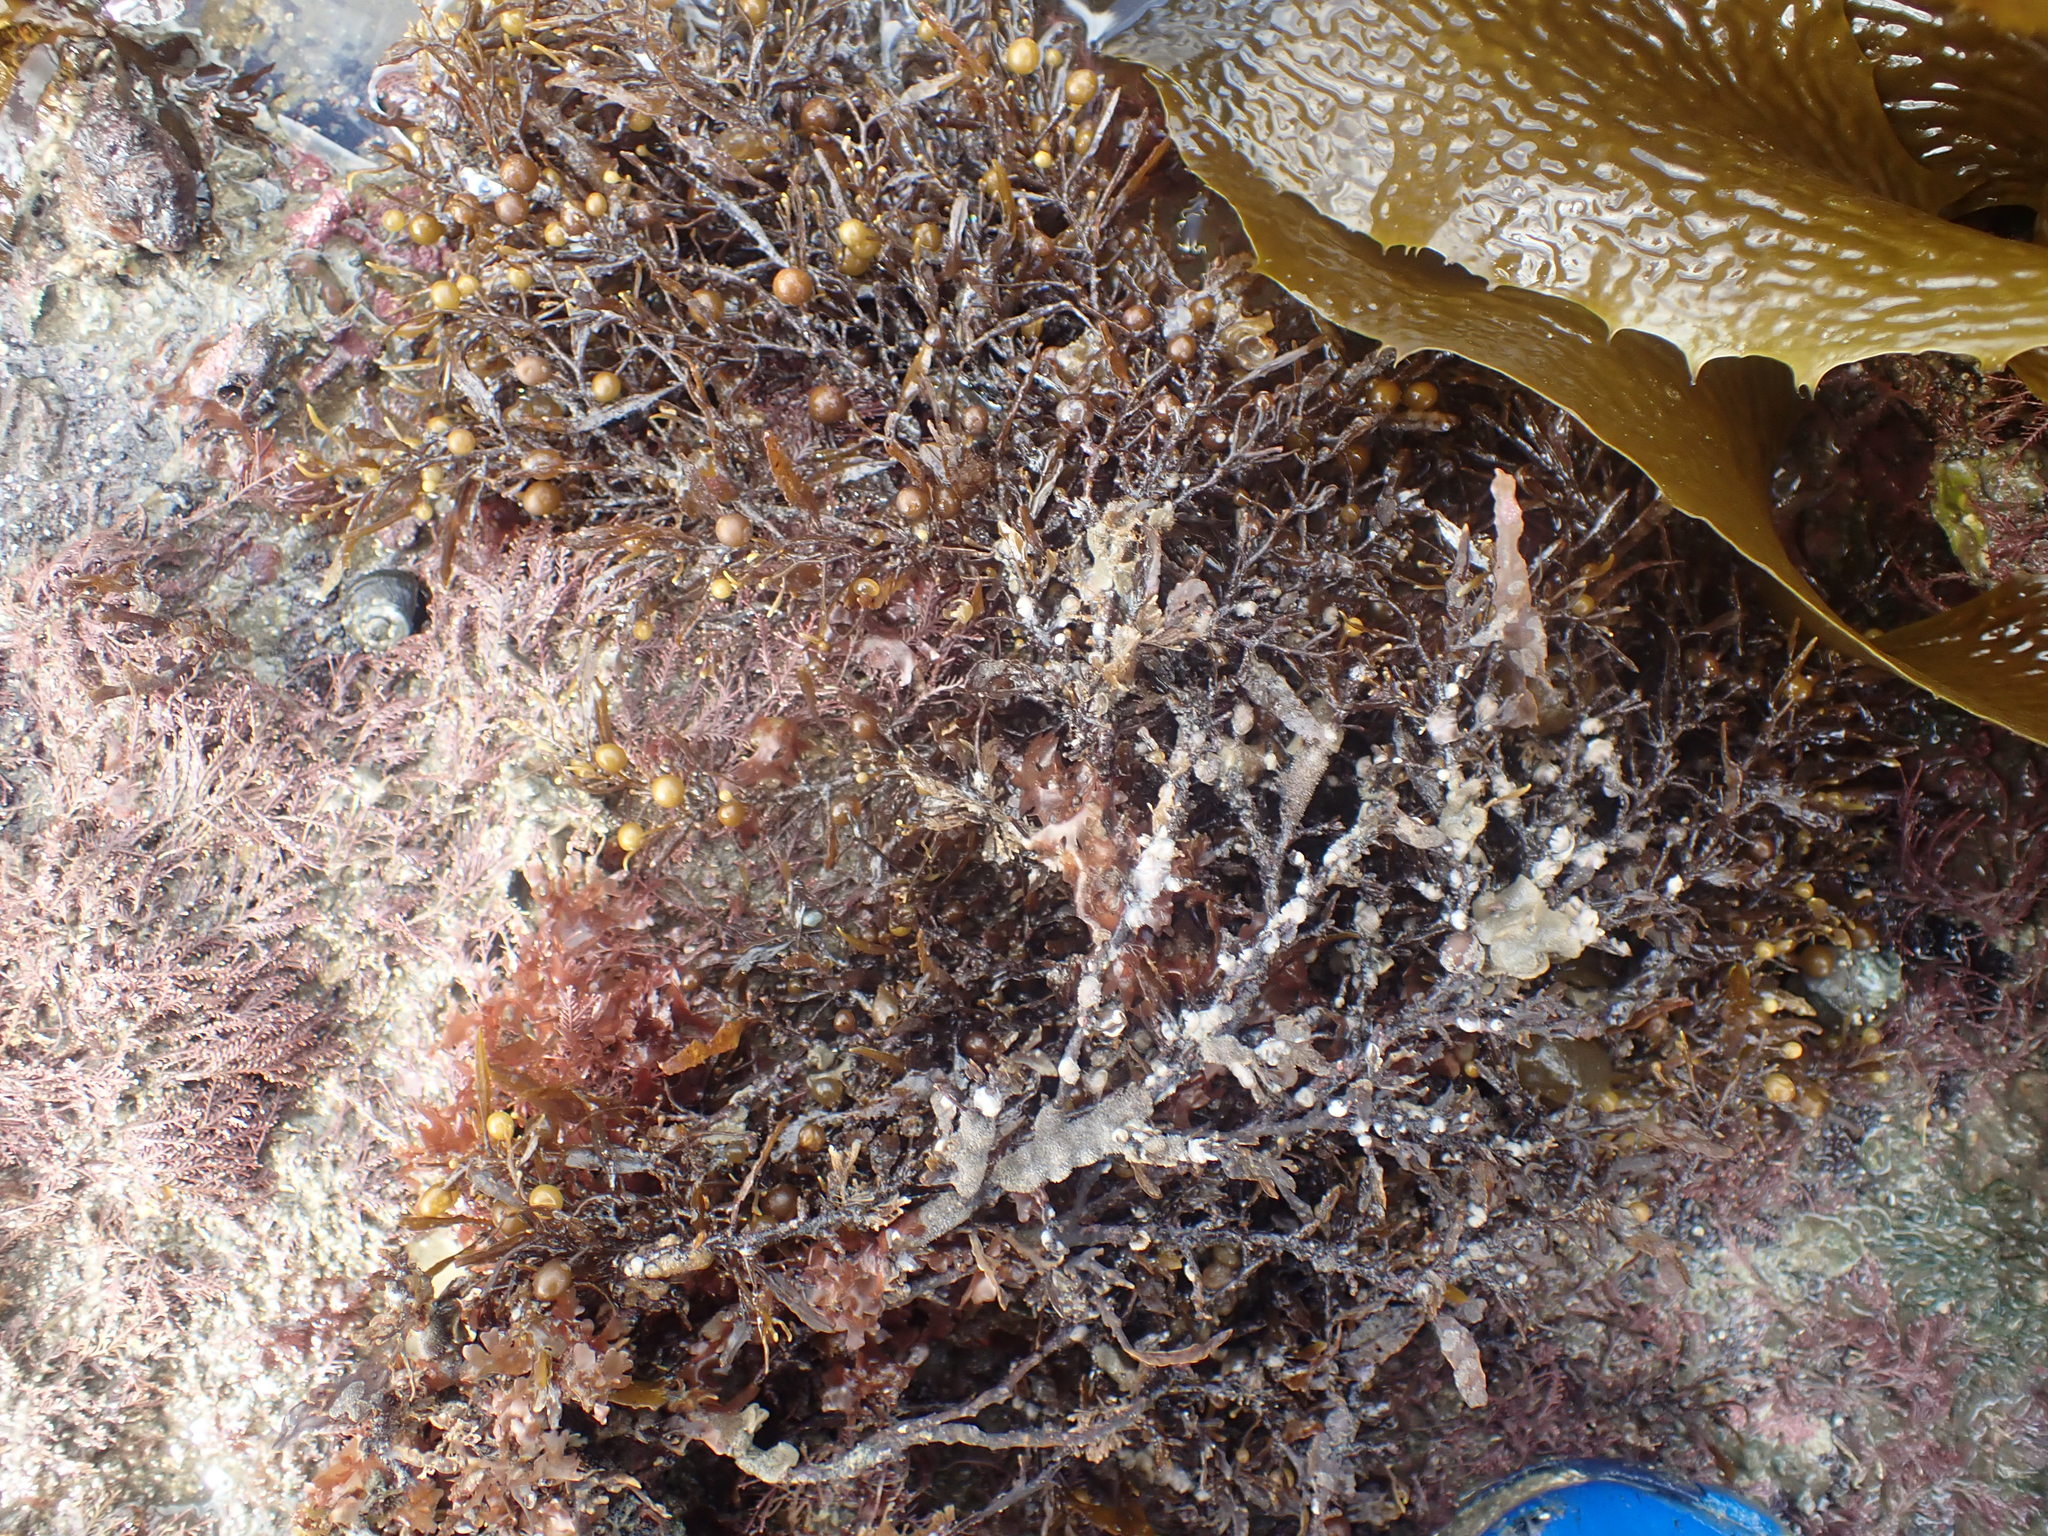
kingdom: Chromista
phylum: Ochrophyta
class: Phaeophyceae
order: Fucales
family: Sargassaceae
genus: Sargassum
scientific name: Sargassum sinclairii
